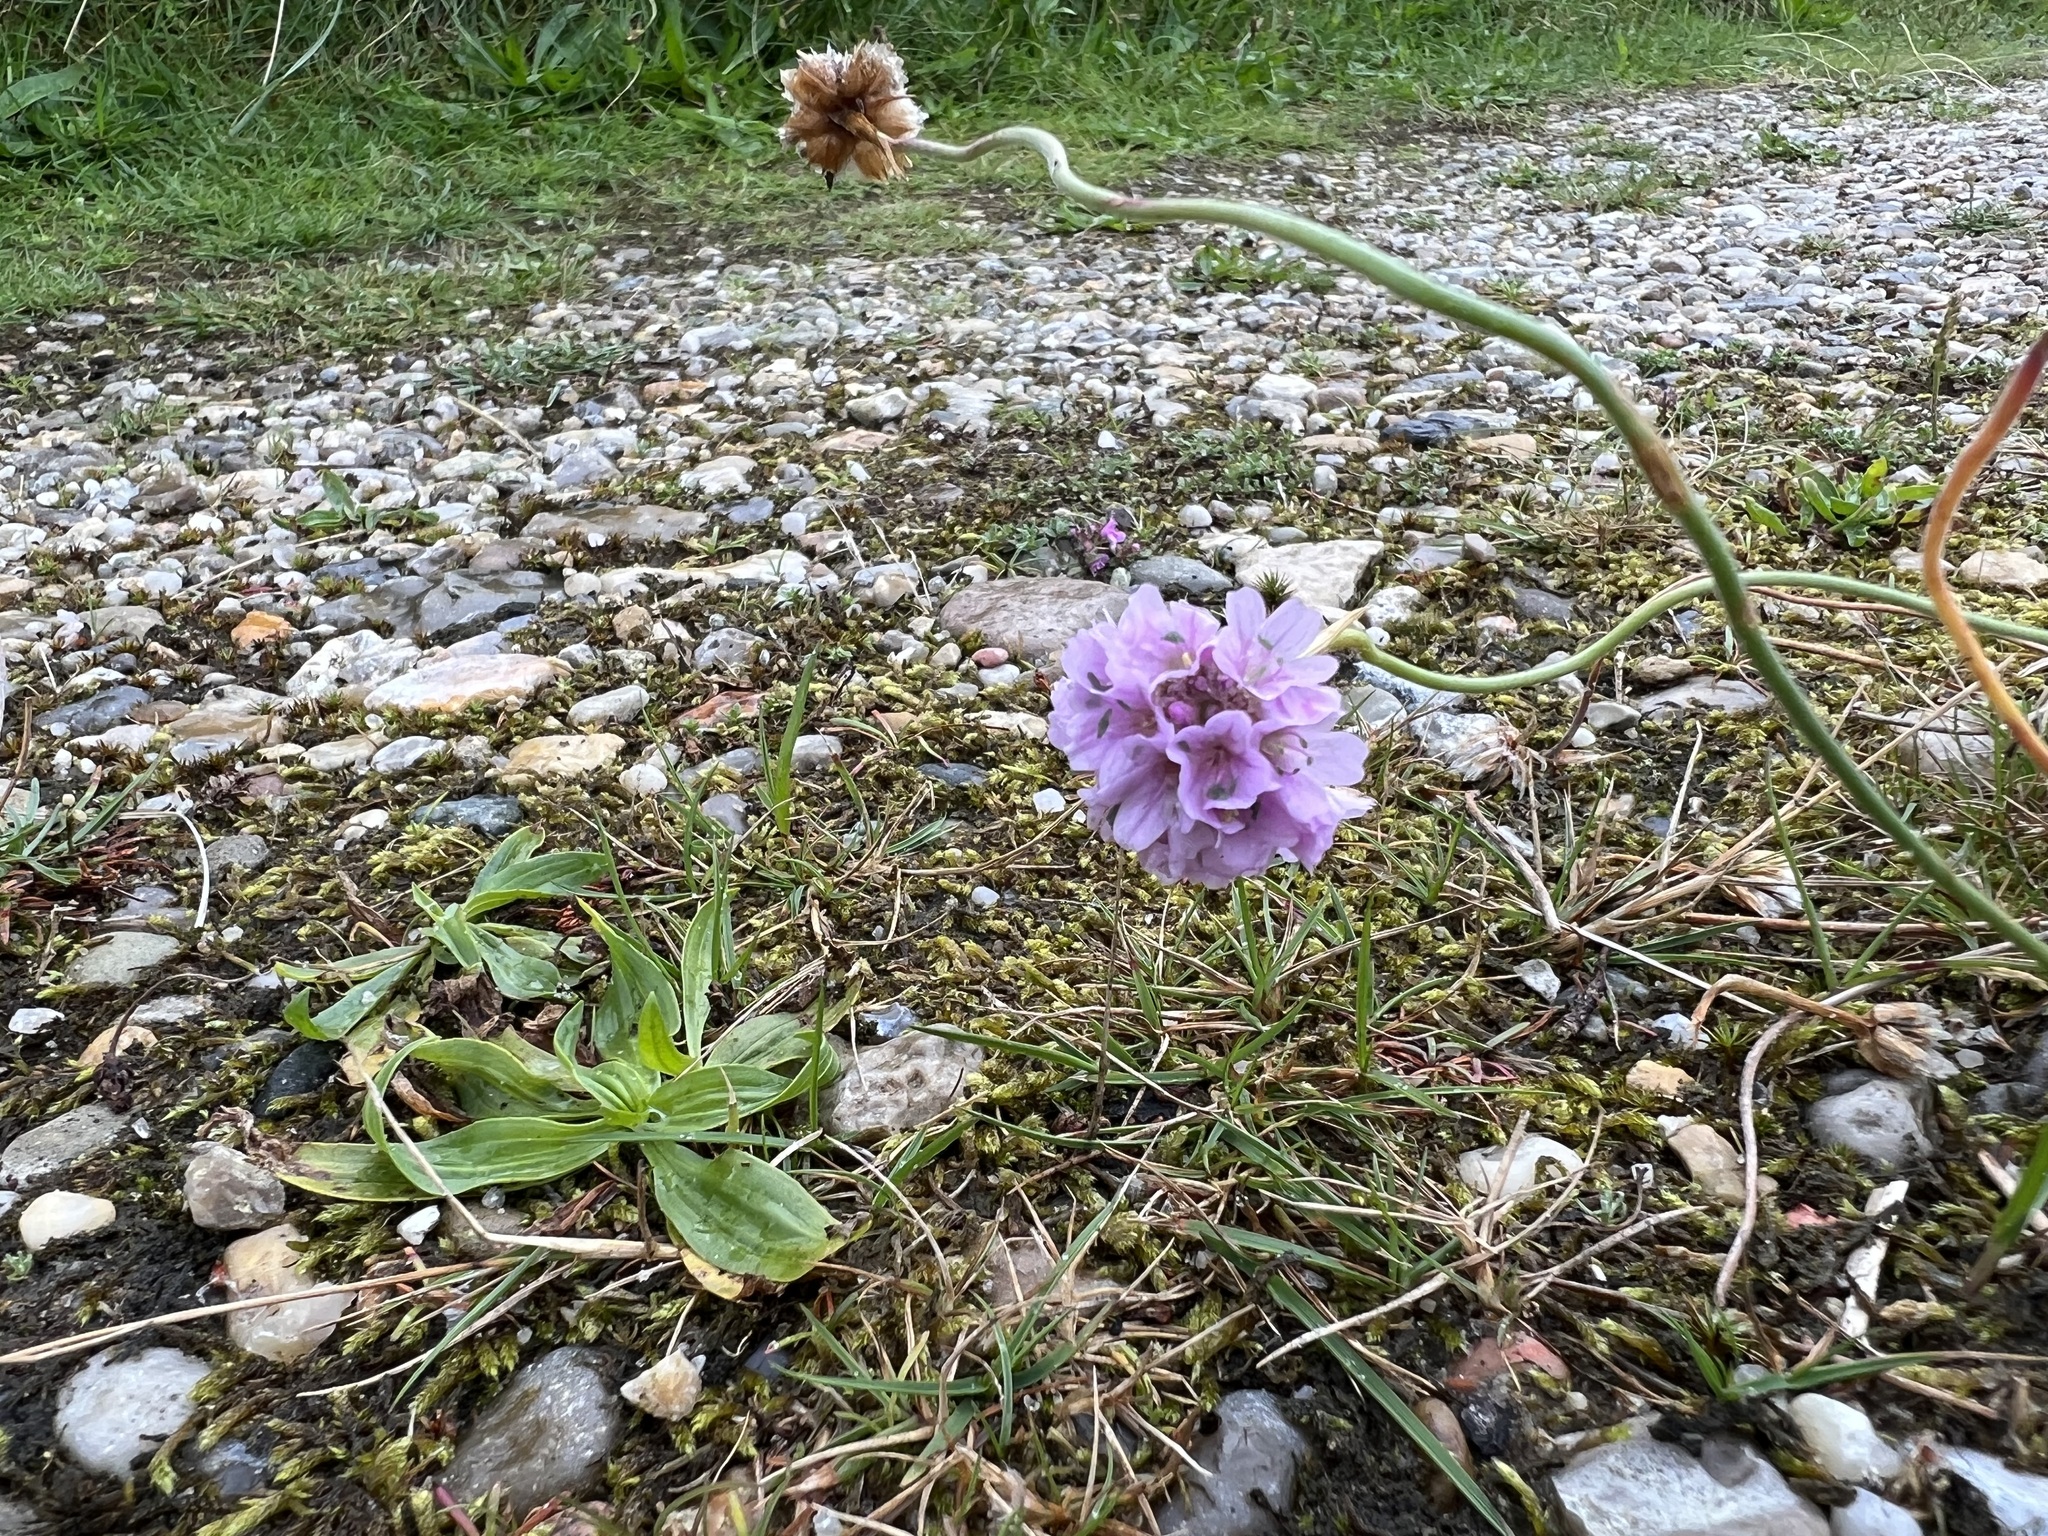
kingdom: Plantae
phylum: Tracheophyta
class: Magnoliopsida
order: Caryophyllales
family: Plumbaginaceae
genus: Armeria
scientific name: Armeria maritima
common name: Thrift
